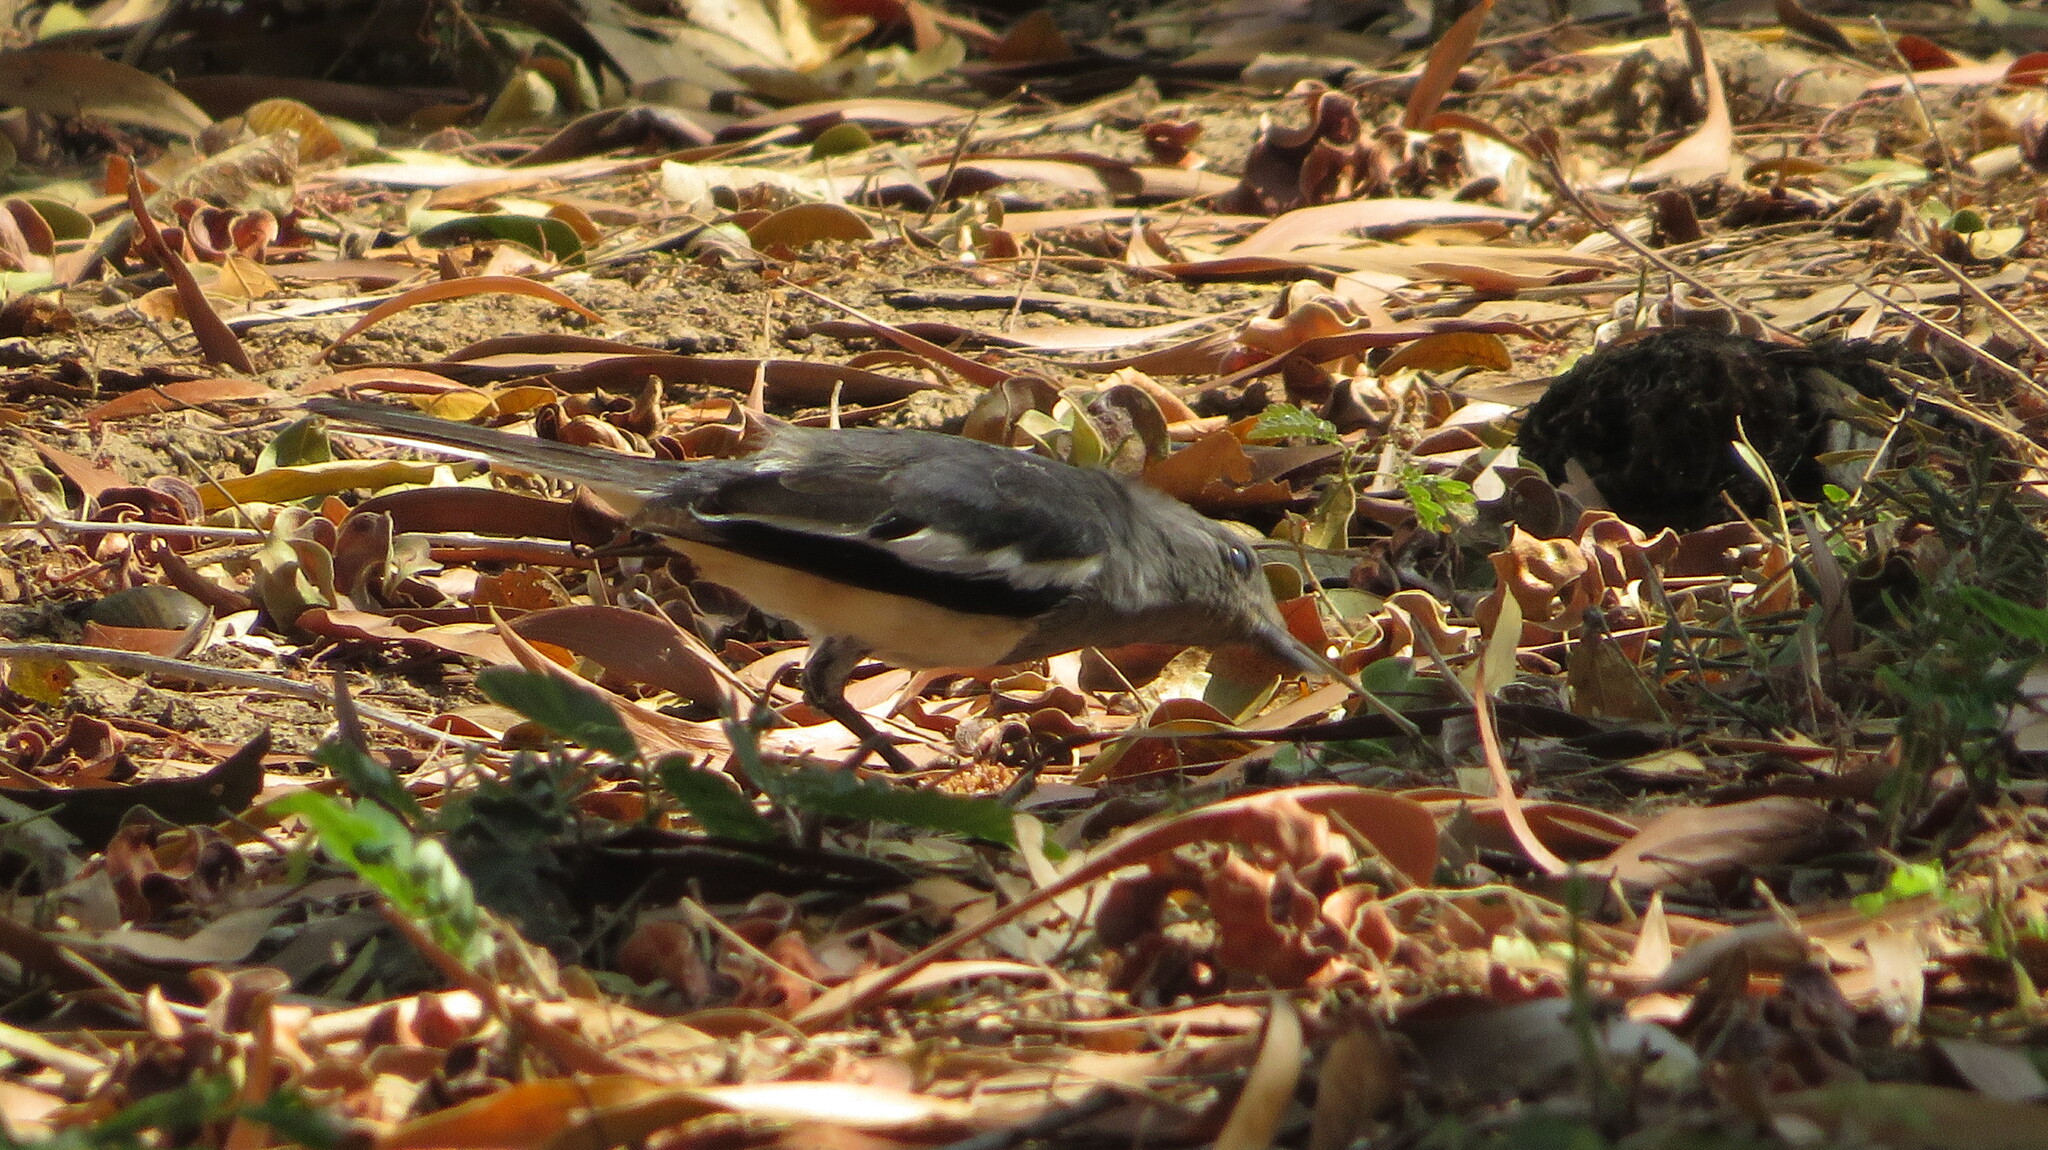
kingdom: Animalia
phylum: Chordata
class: Aves
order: Passeriformes
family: Muscicapidae
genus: Copsychus
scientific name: Copsychus saularis
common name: Oriental magpie-robin
